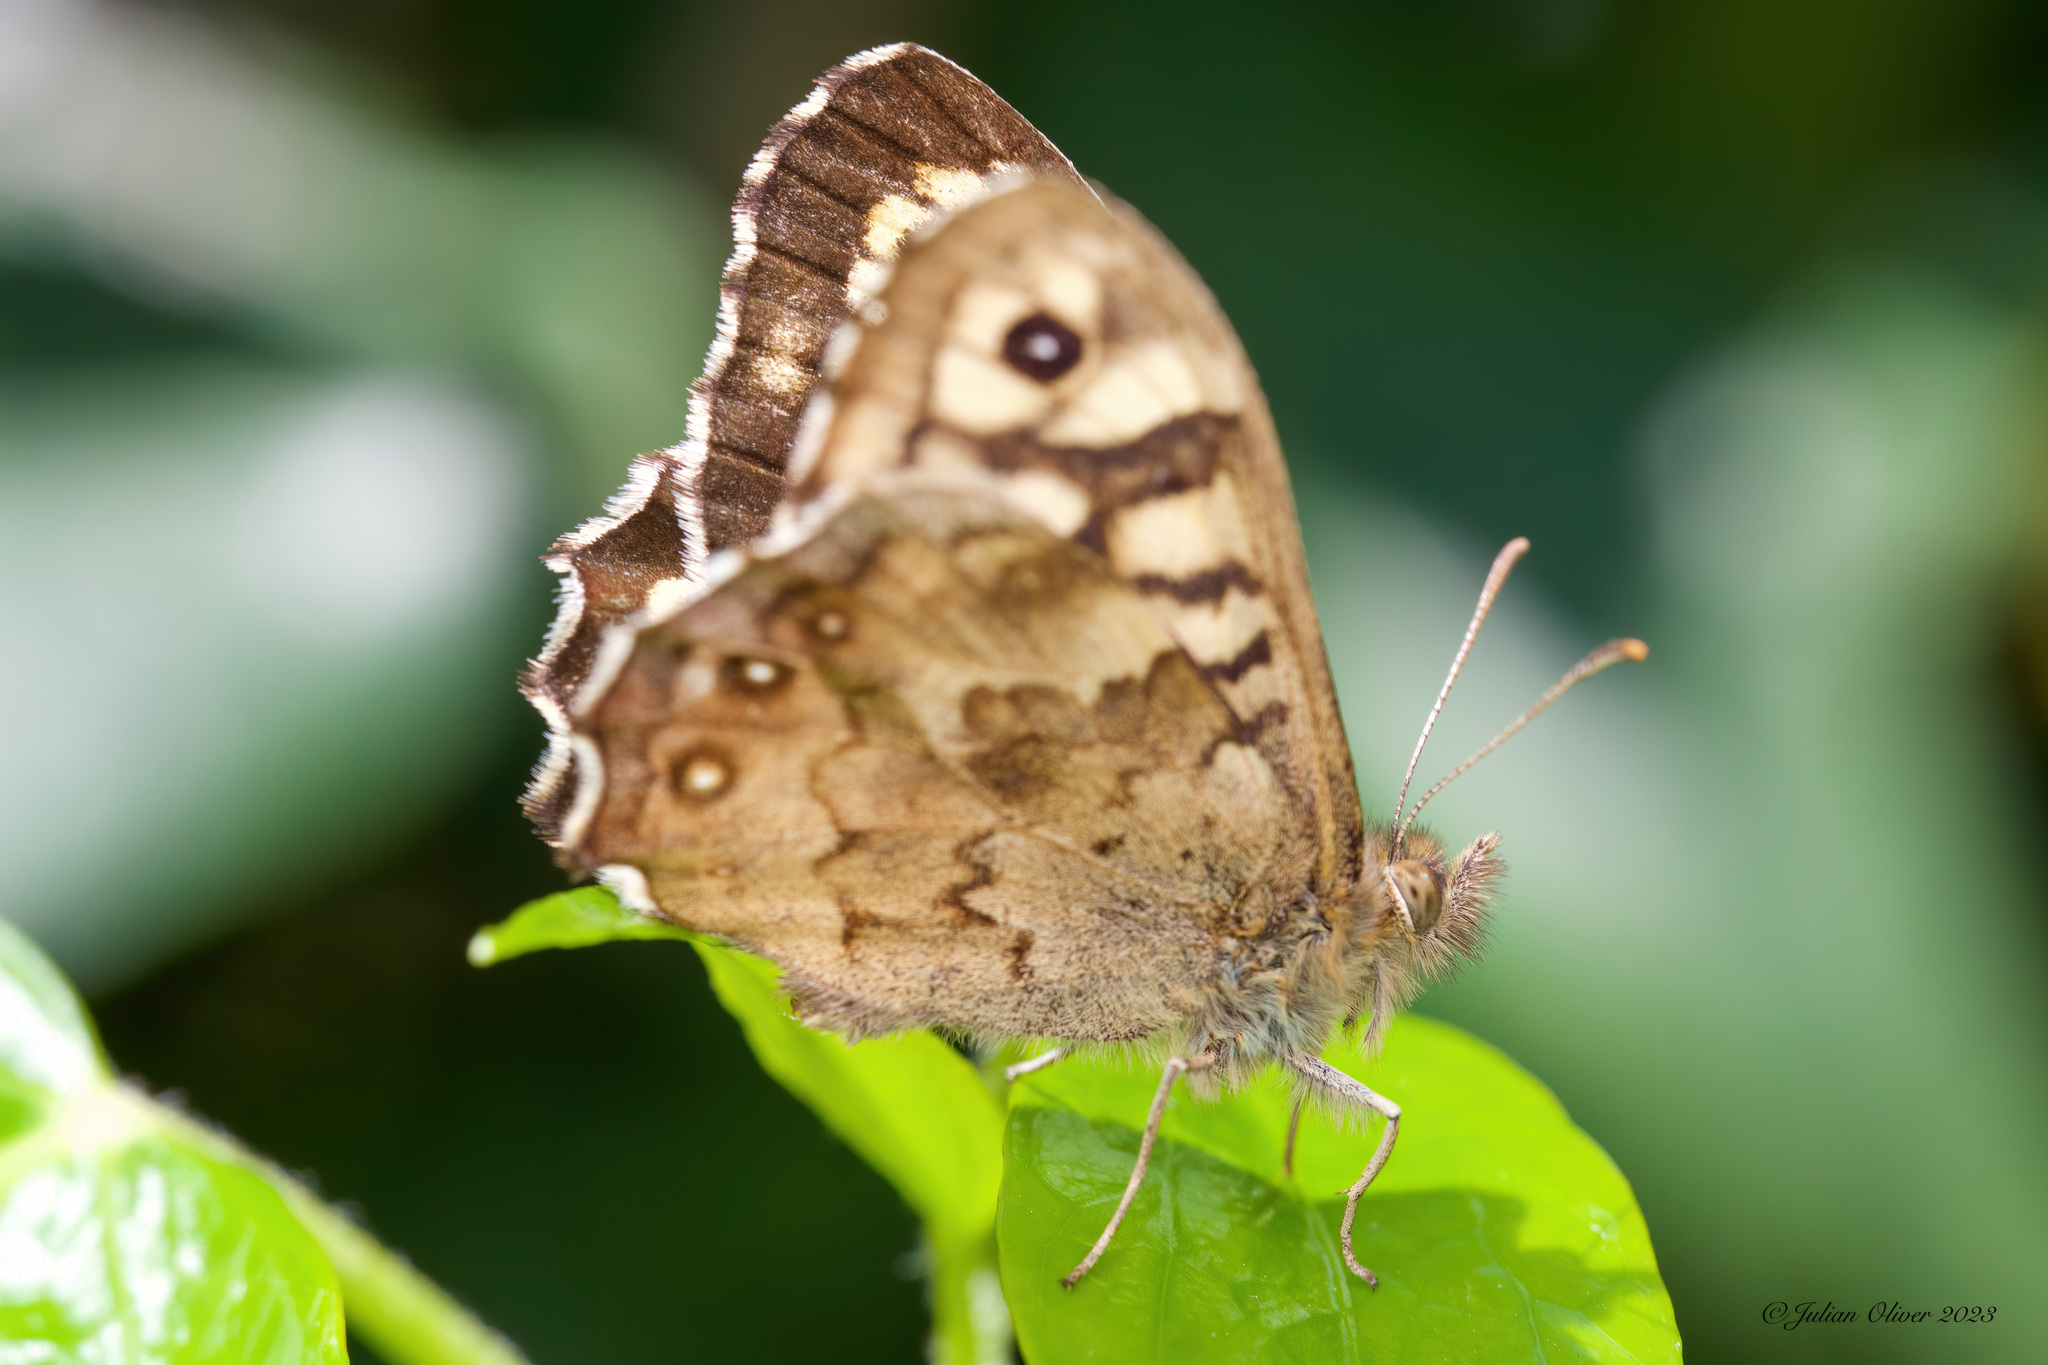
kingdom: Animalia
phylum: Arthropoda
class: Insecta
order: Lepidoptera
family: Nymphalidae
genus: Pararge
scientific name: Pararge aegeria
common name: Speckled wood
